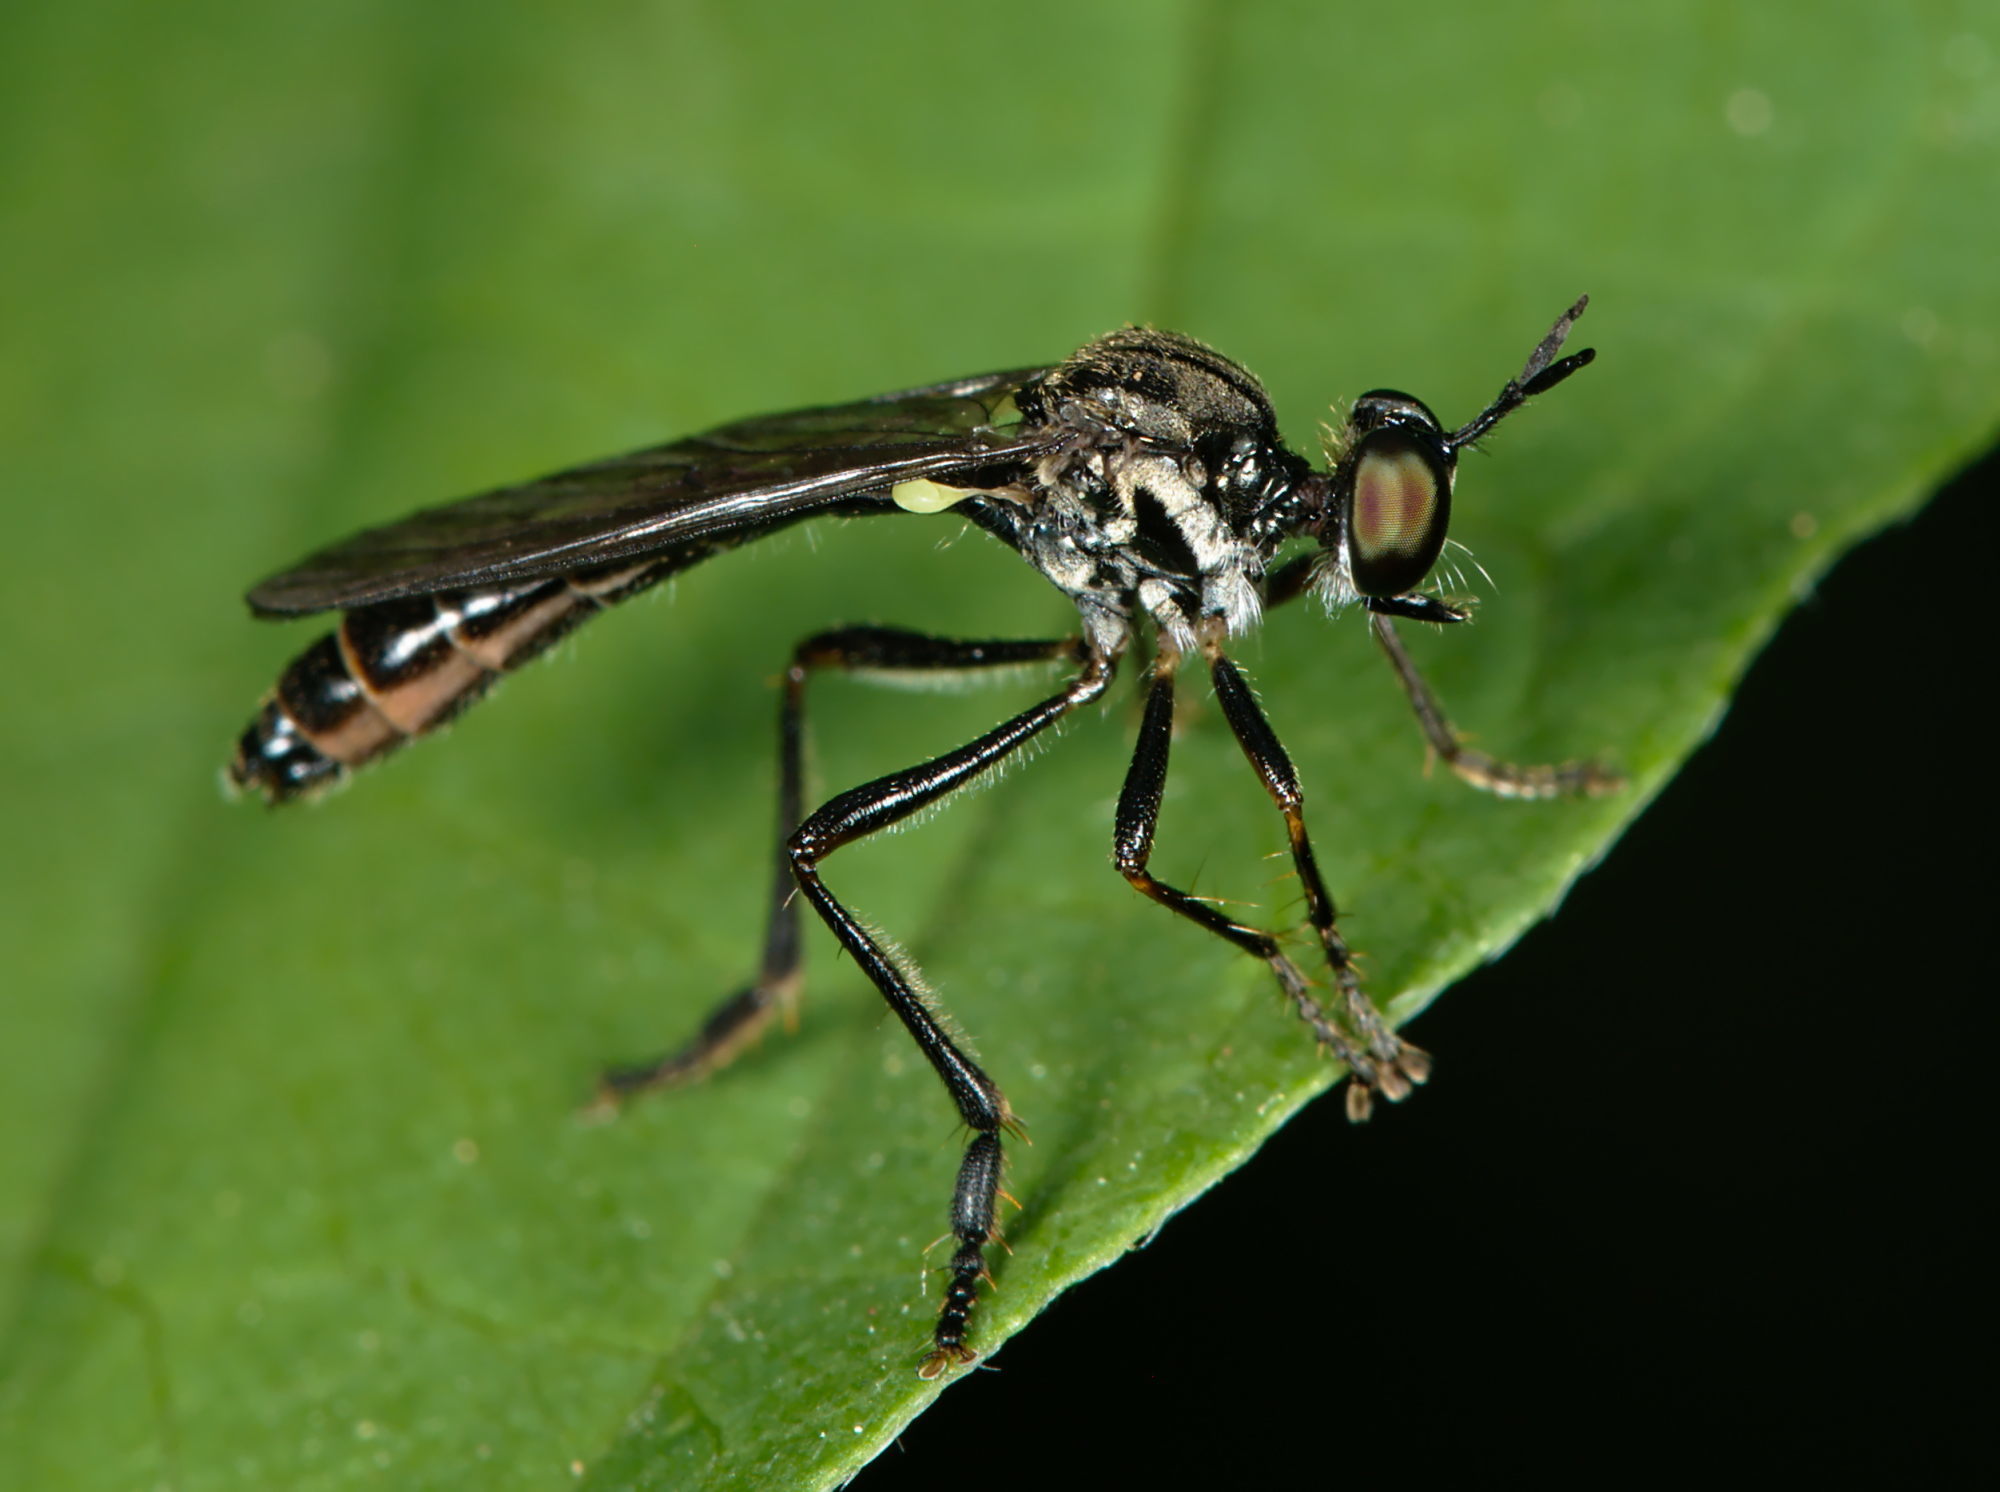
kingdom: Animalia
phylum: Arthropoda
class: Insecta
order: Diptera
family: Asilidae
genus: Dioctria
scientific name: Dioctria hyalipennis
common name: Stripe-legged robberfly
